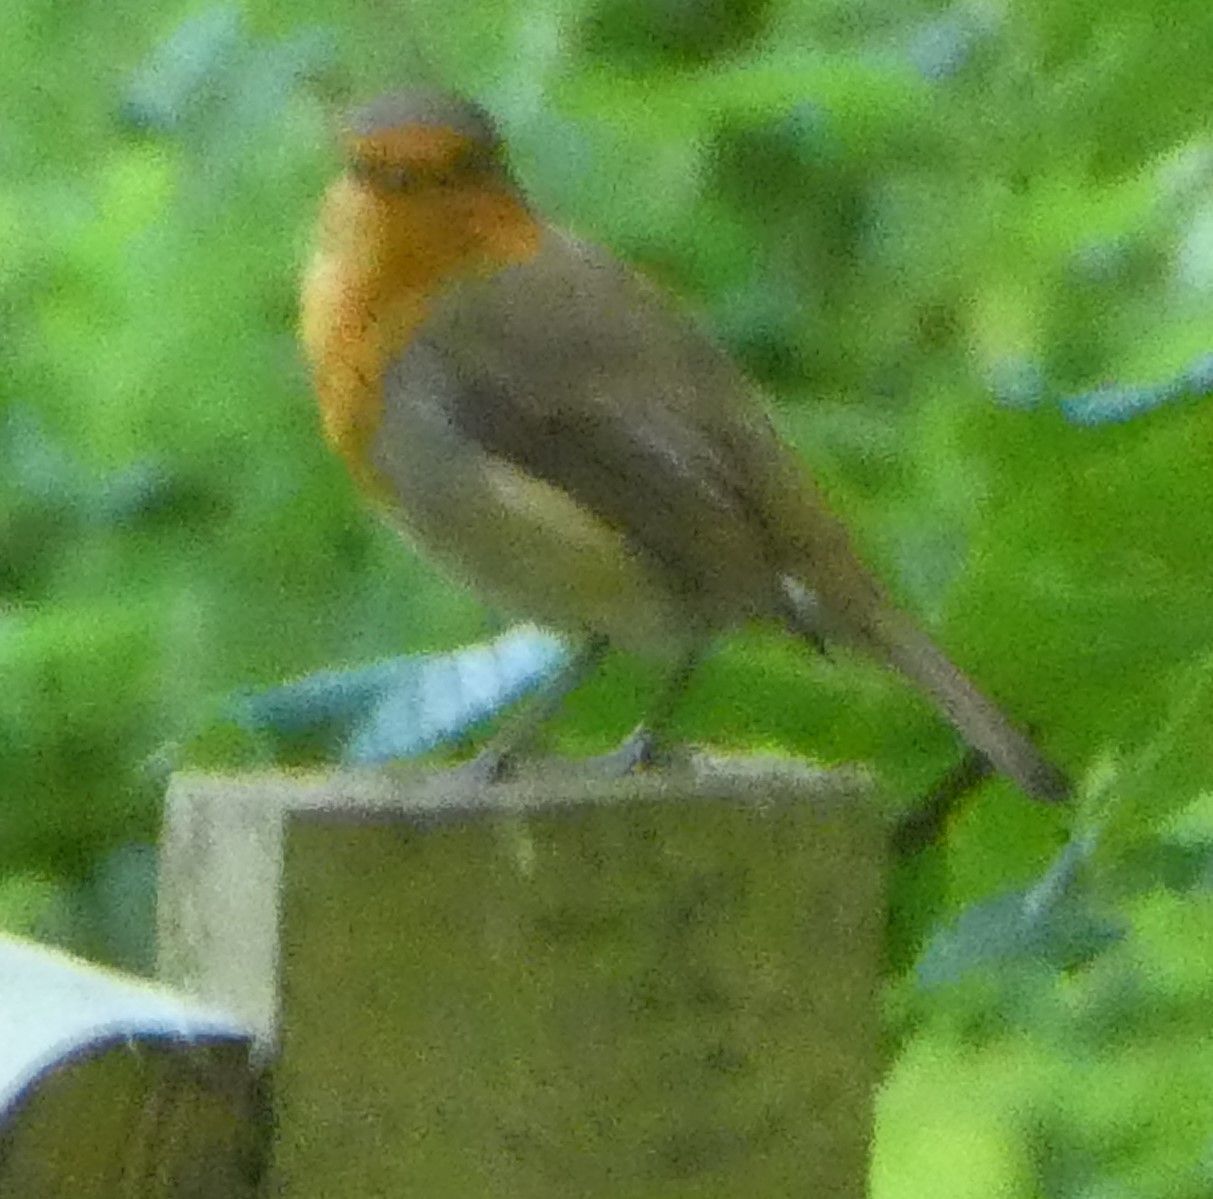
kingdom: Animalia
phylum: Chordata
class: Aves
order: Passeriformes
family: Muscicapidae
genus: Erithacus
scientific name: Erithacus rubecula
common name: European robin
